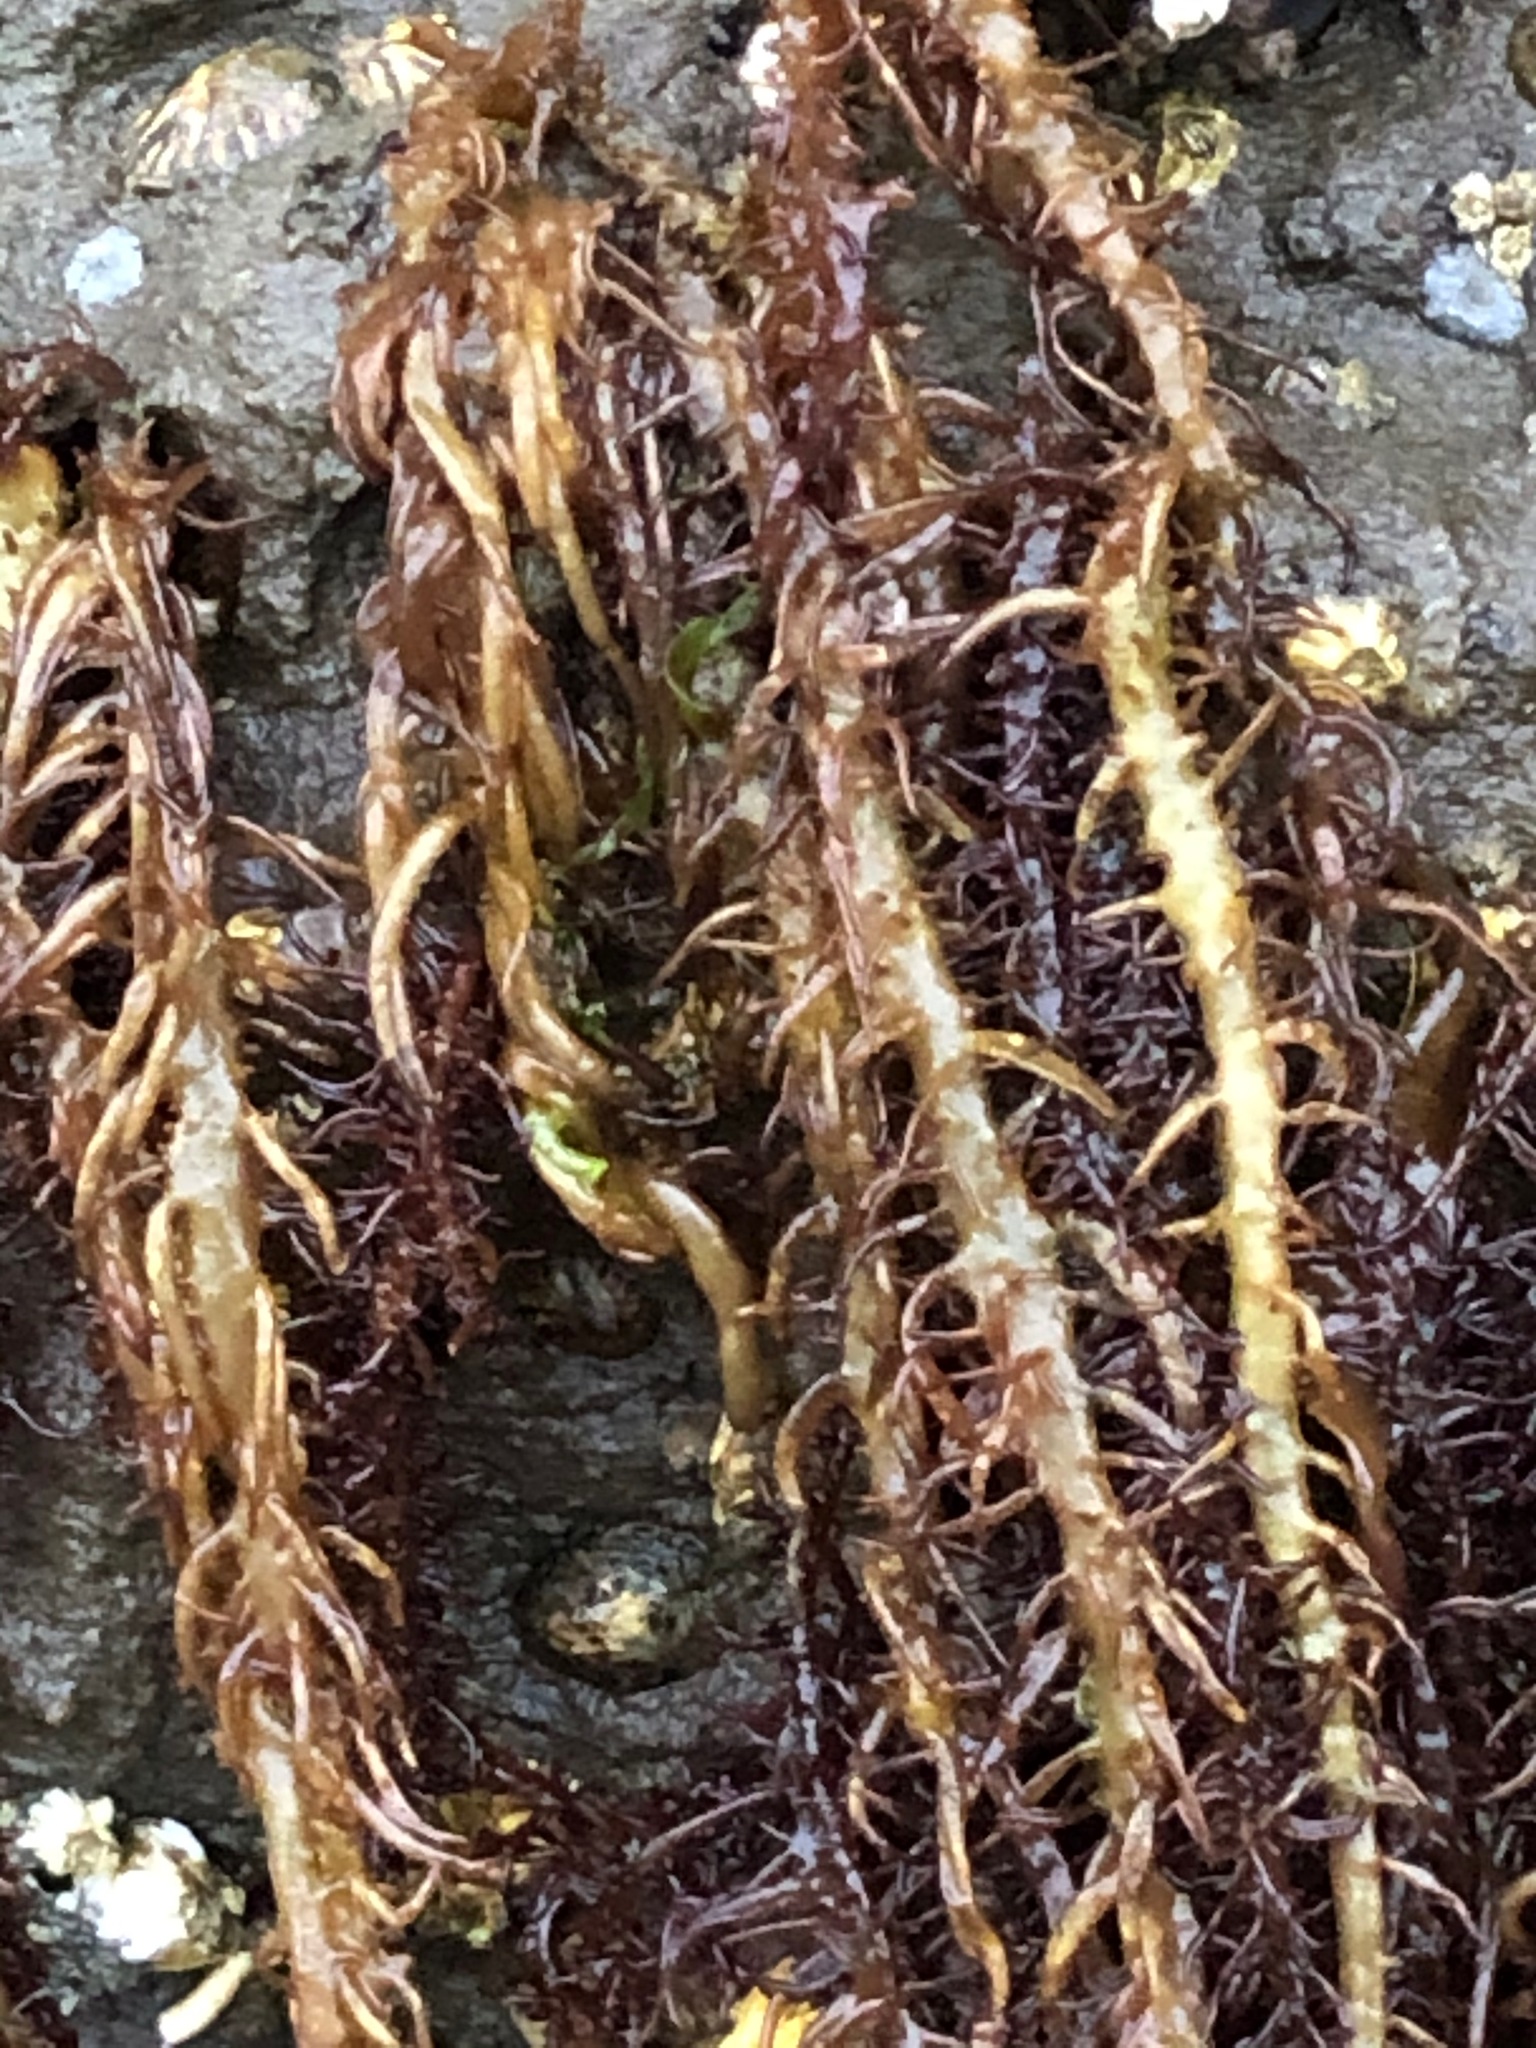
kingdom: Plantae
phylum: Rhodophyta
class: Florideophyceae
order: Nemaliales
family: Liagoraceae
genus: Cumagloia
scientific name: Cumagloia andersonii
